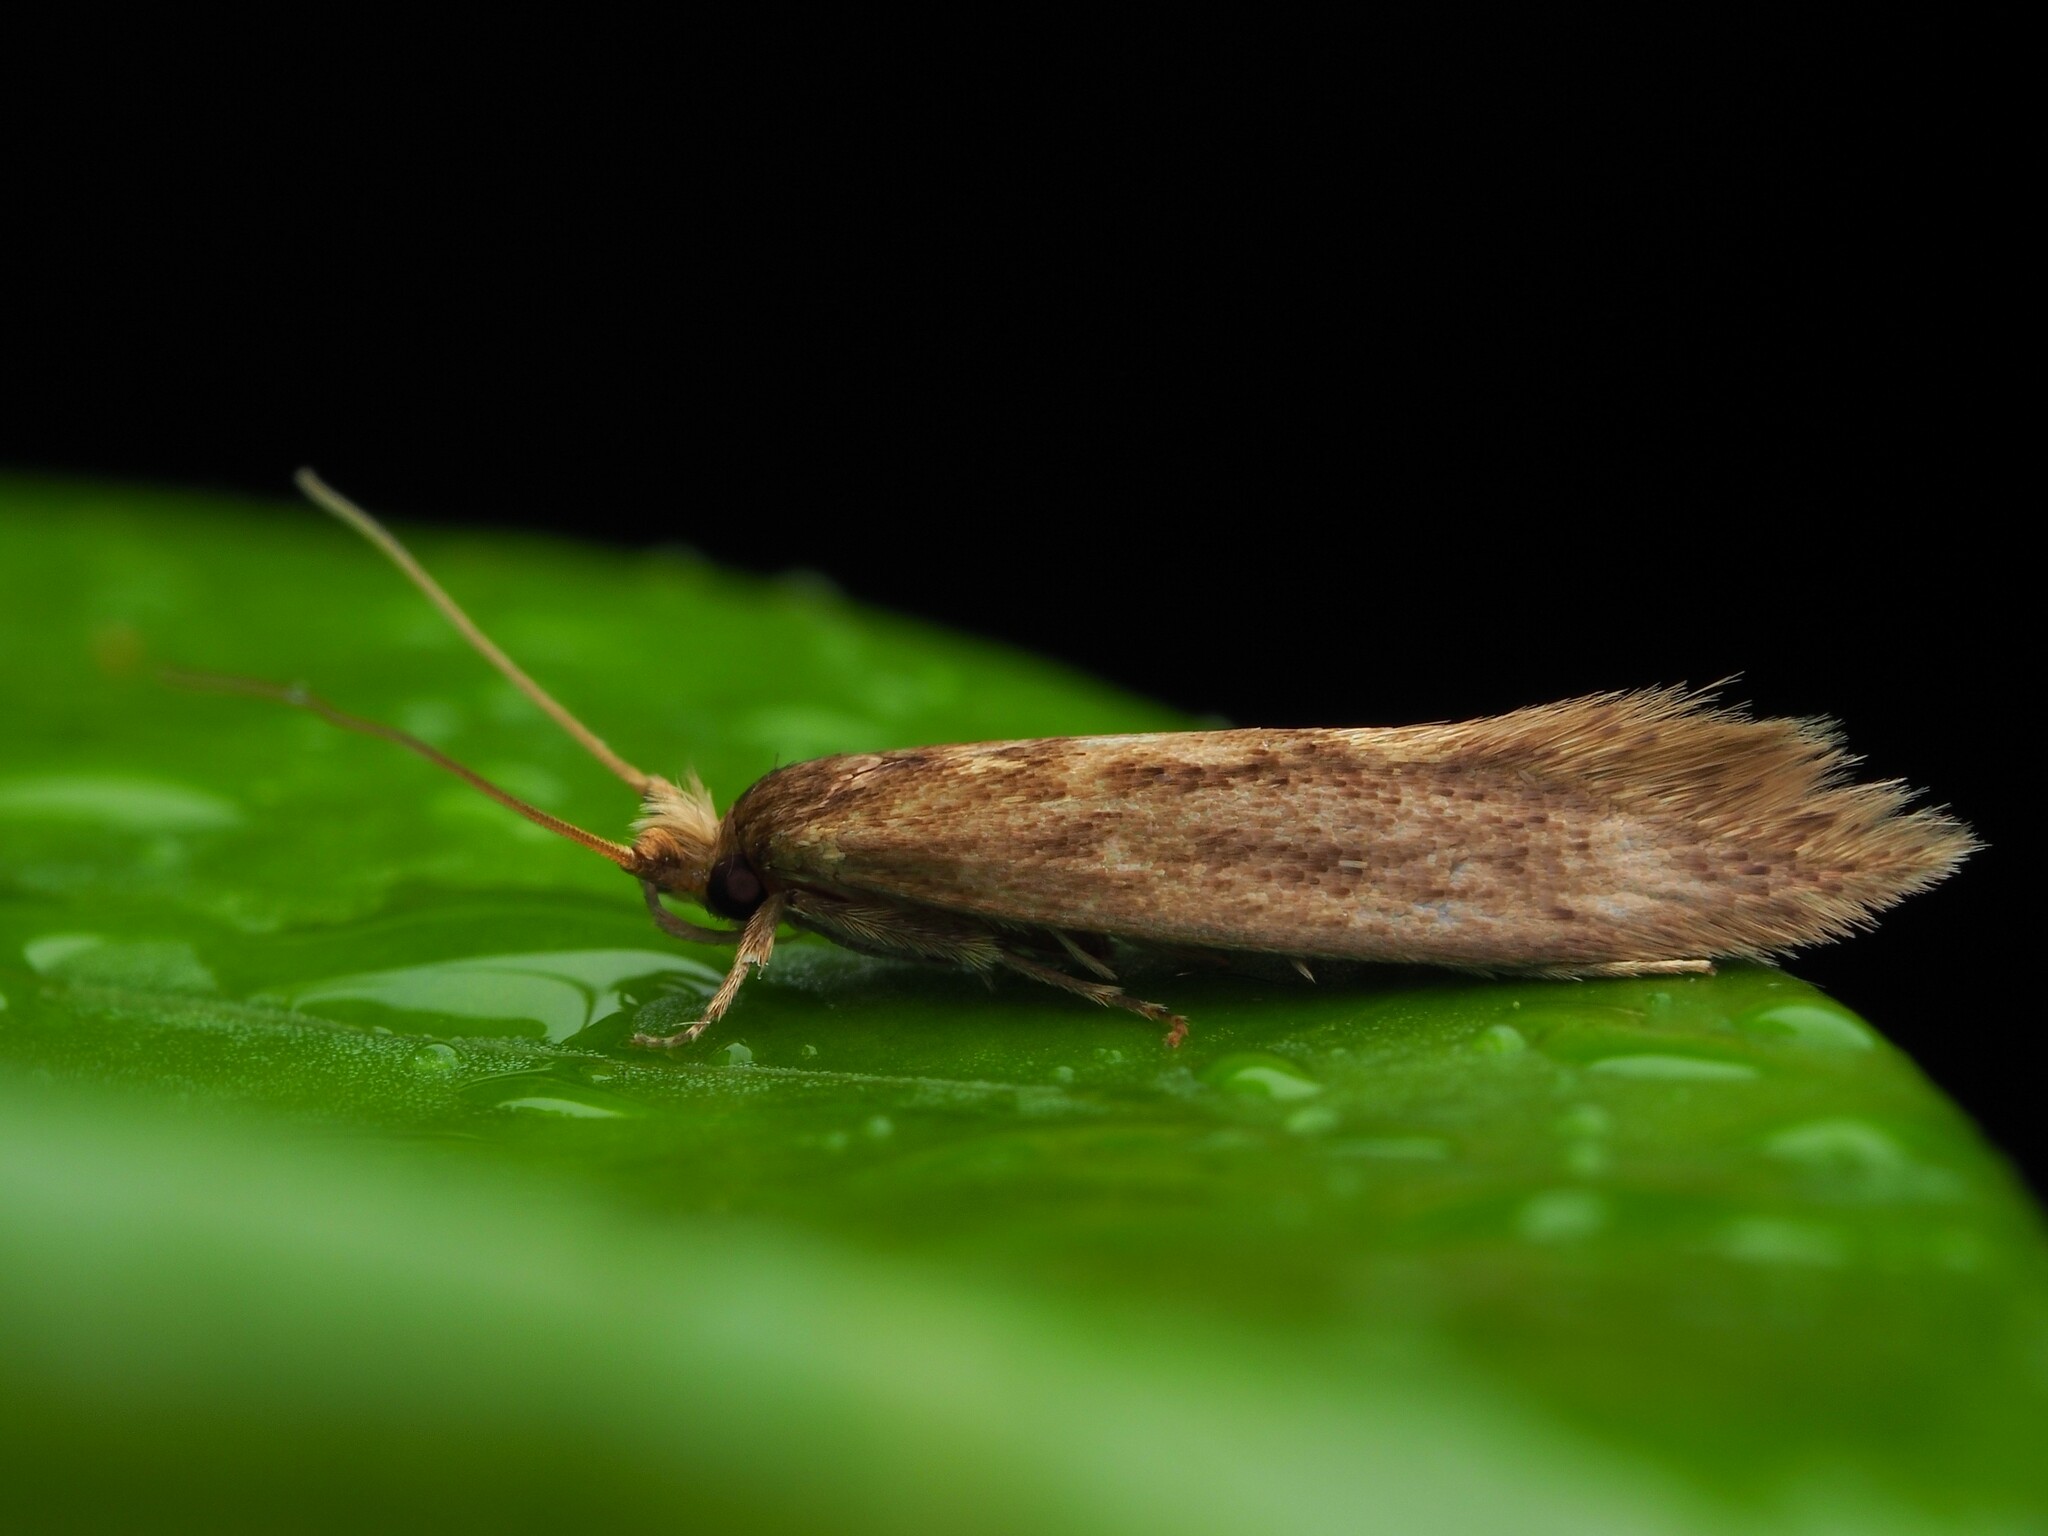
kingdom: Animalia
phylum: Arthropoda
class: Insecta
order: Lepidoptera
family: Tineidae
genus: Opogona
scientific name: Opogona omoscopa
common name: Moth
